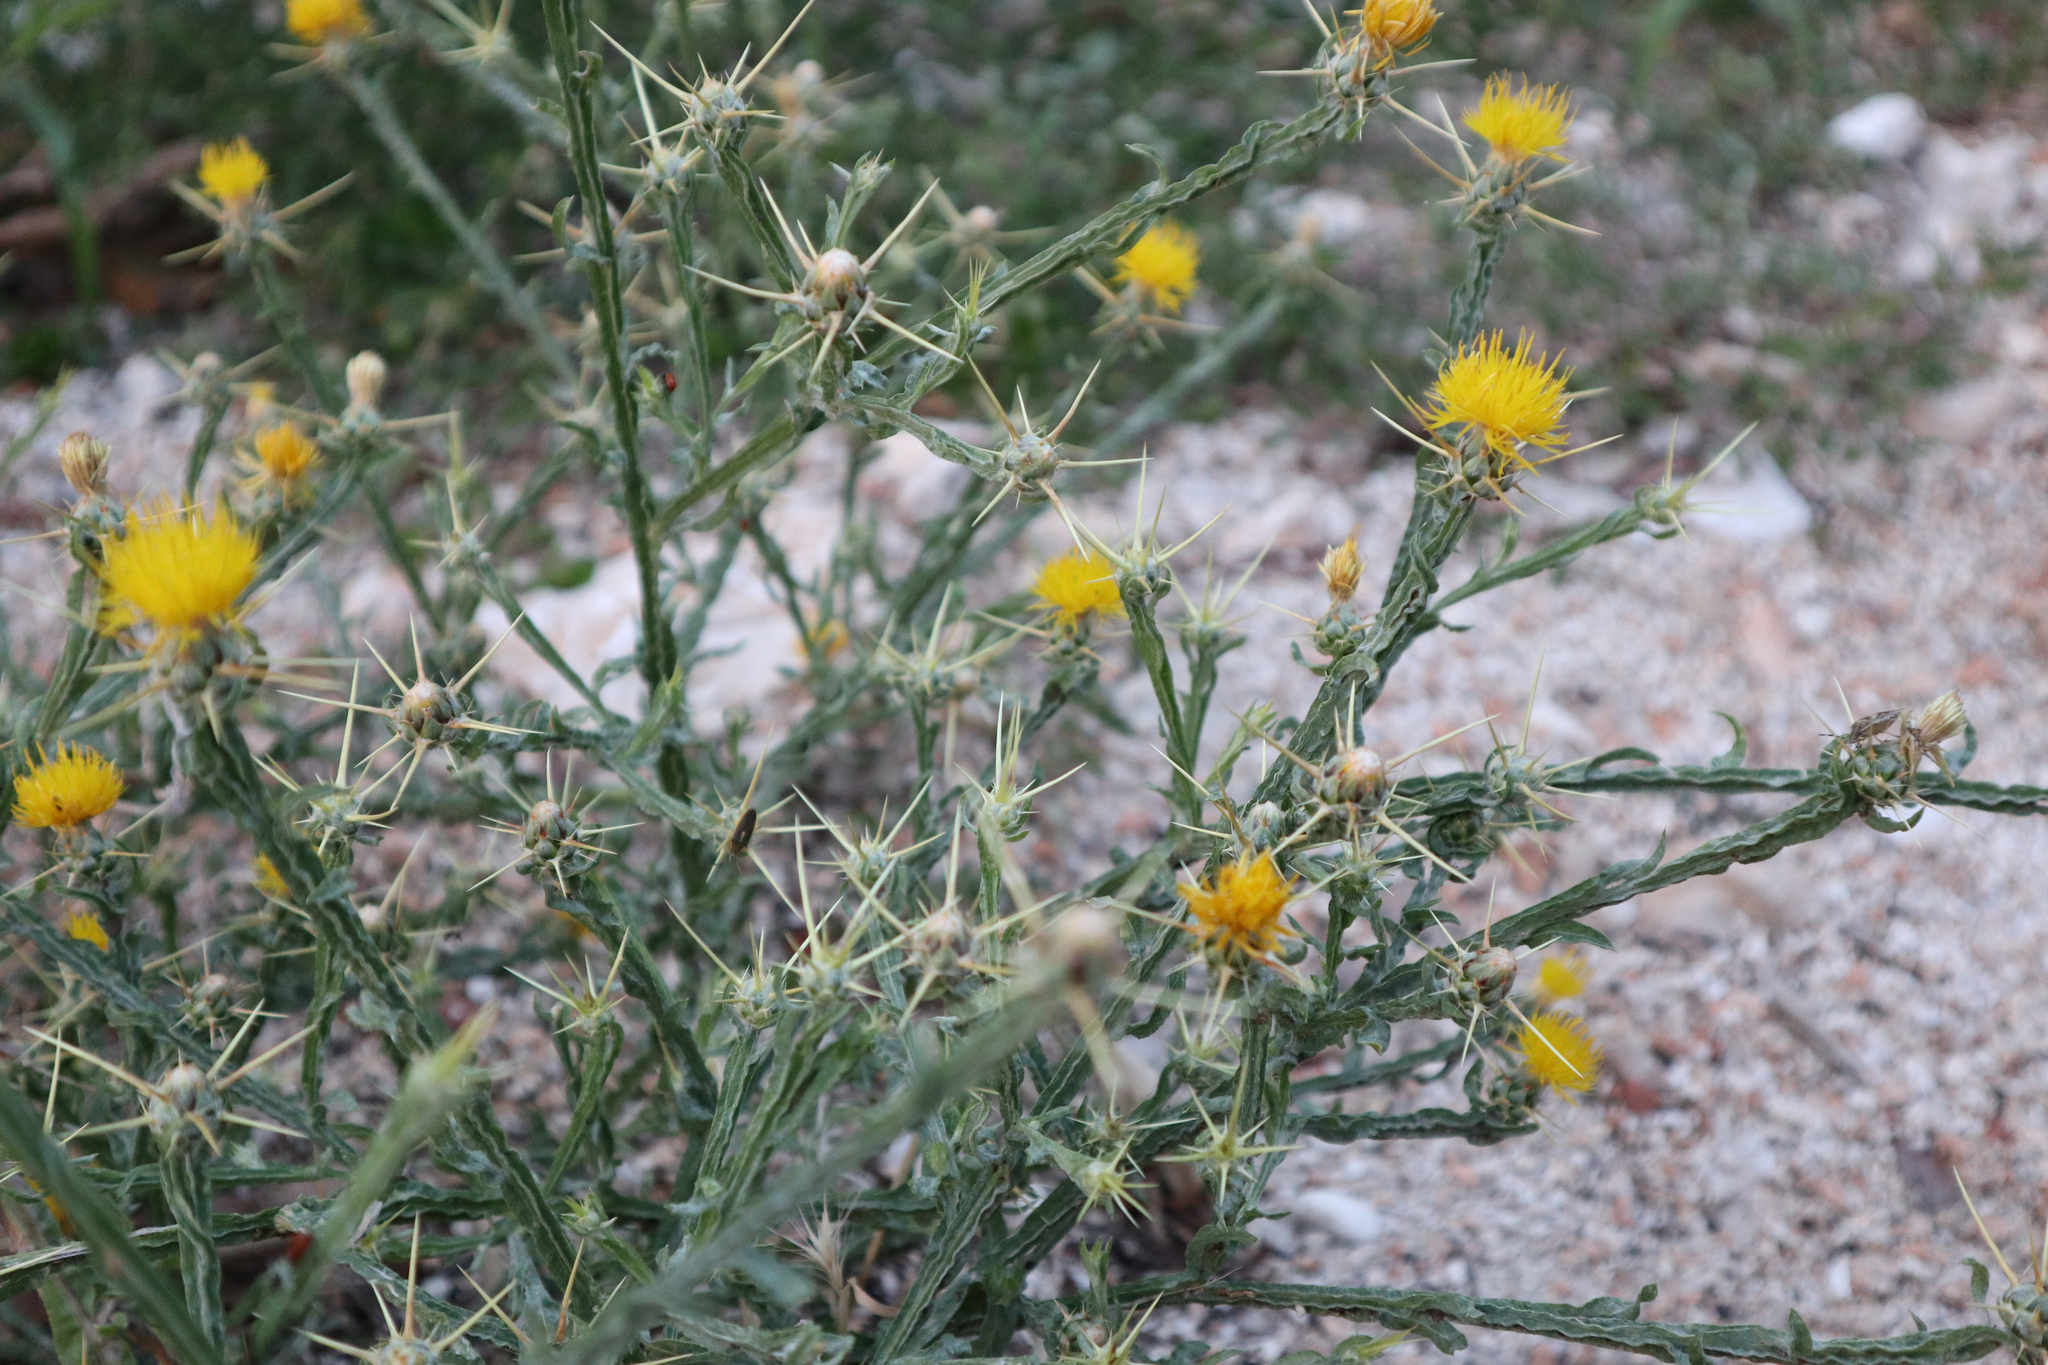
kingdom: Plantae
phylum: Tracheophyta
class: Magnoliopsida
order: Asterales
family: Asteraceae
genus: Centaurea
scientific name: Centaurea solstitialis
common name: Yellow star-thistle
